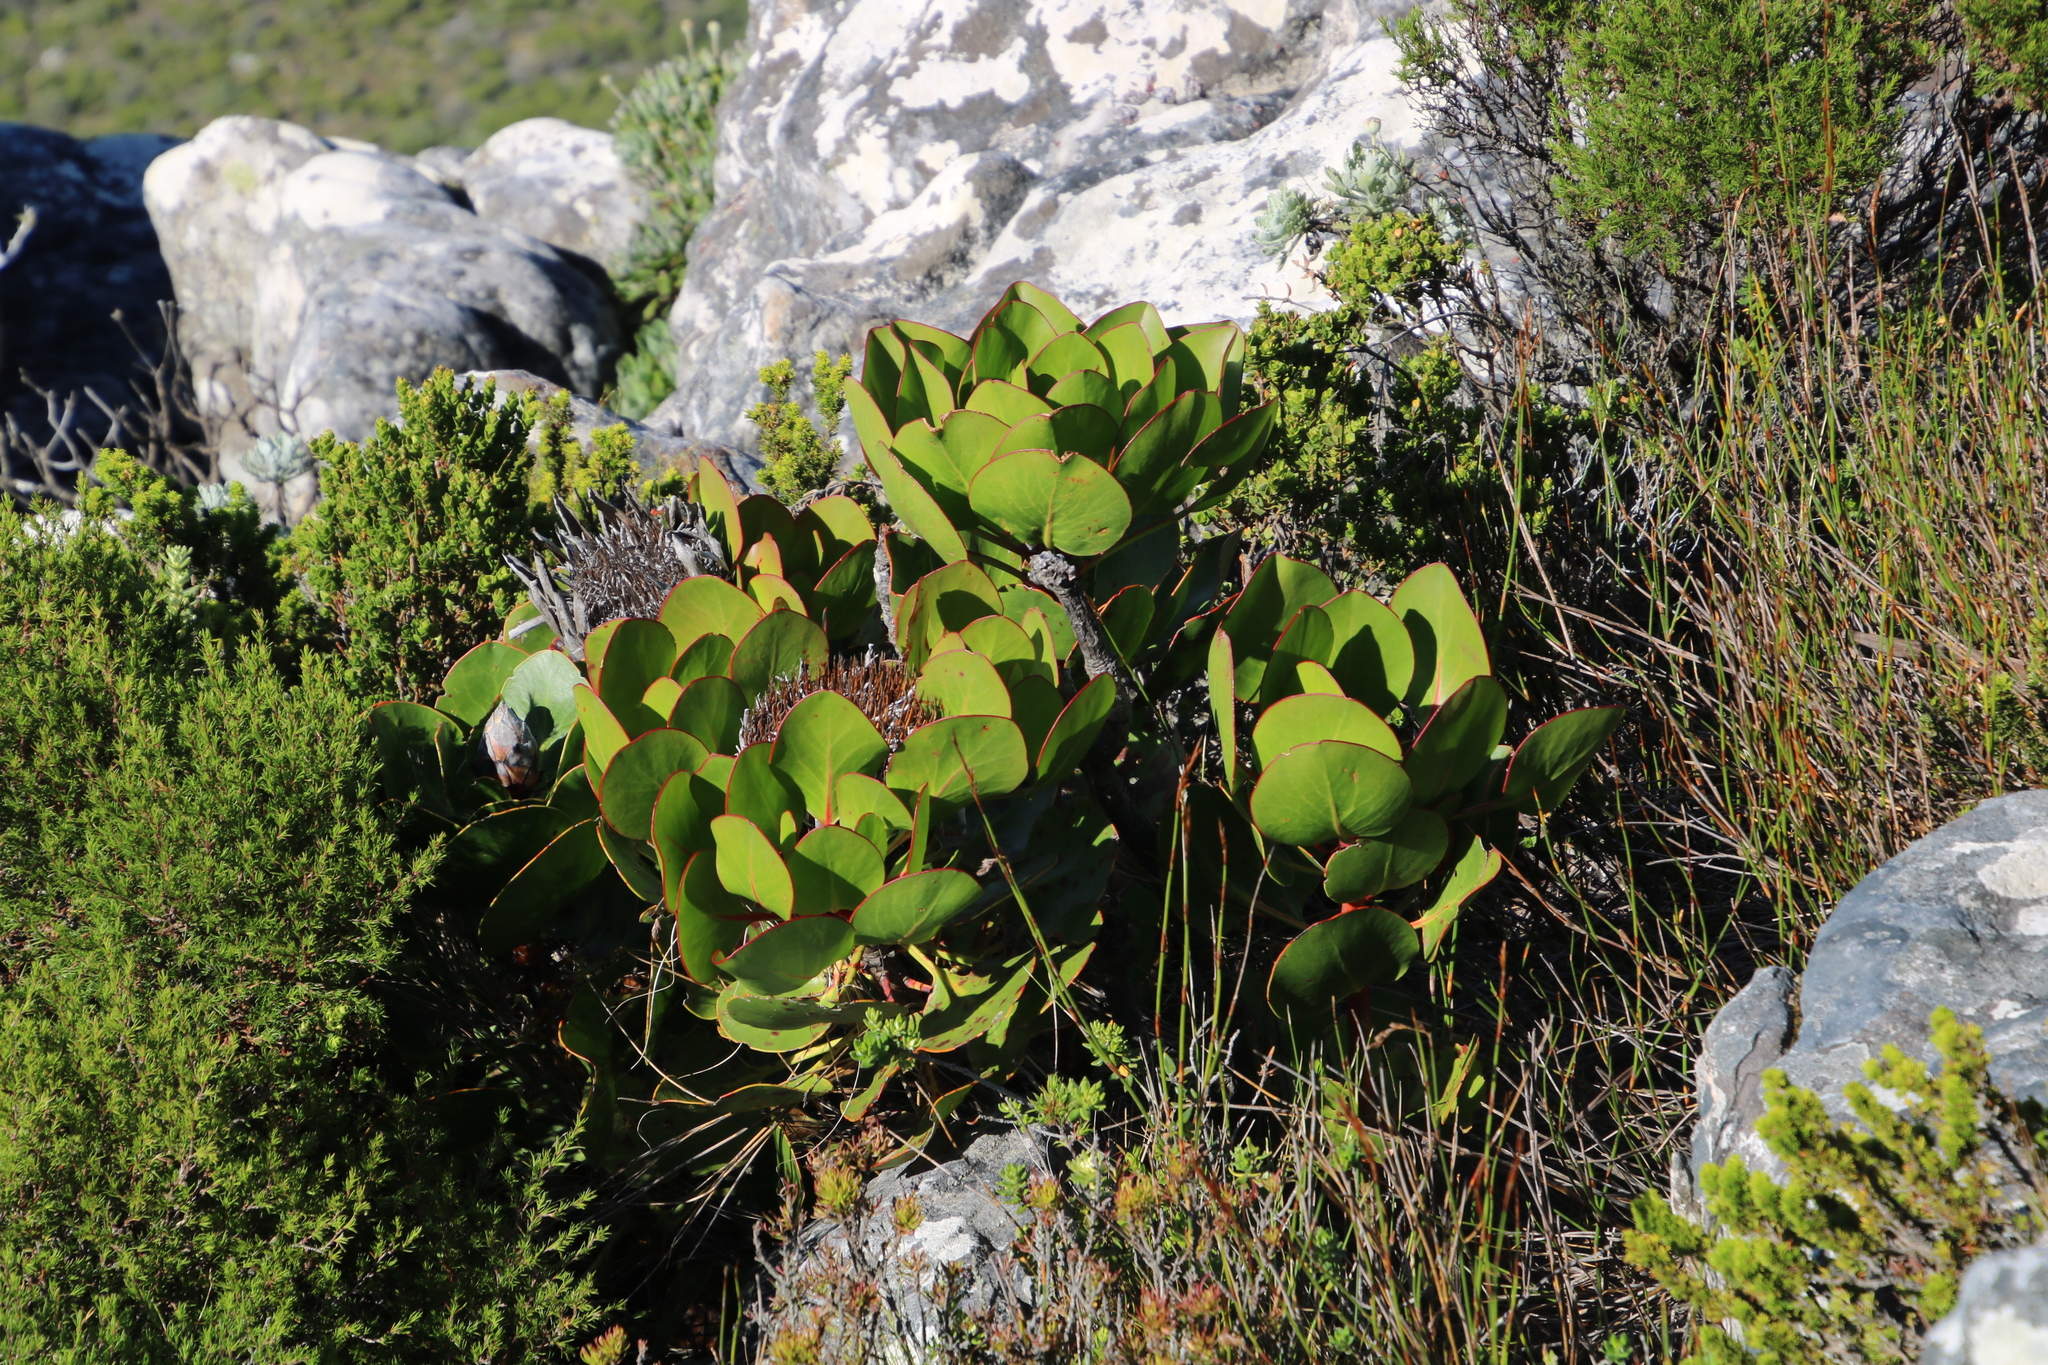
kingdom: Plantae
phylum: Tracheophyta
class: Magnoliopsida
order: Proteales
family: Proteaceae
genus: Protea
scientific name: Protea cynaroides
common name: King protea
